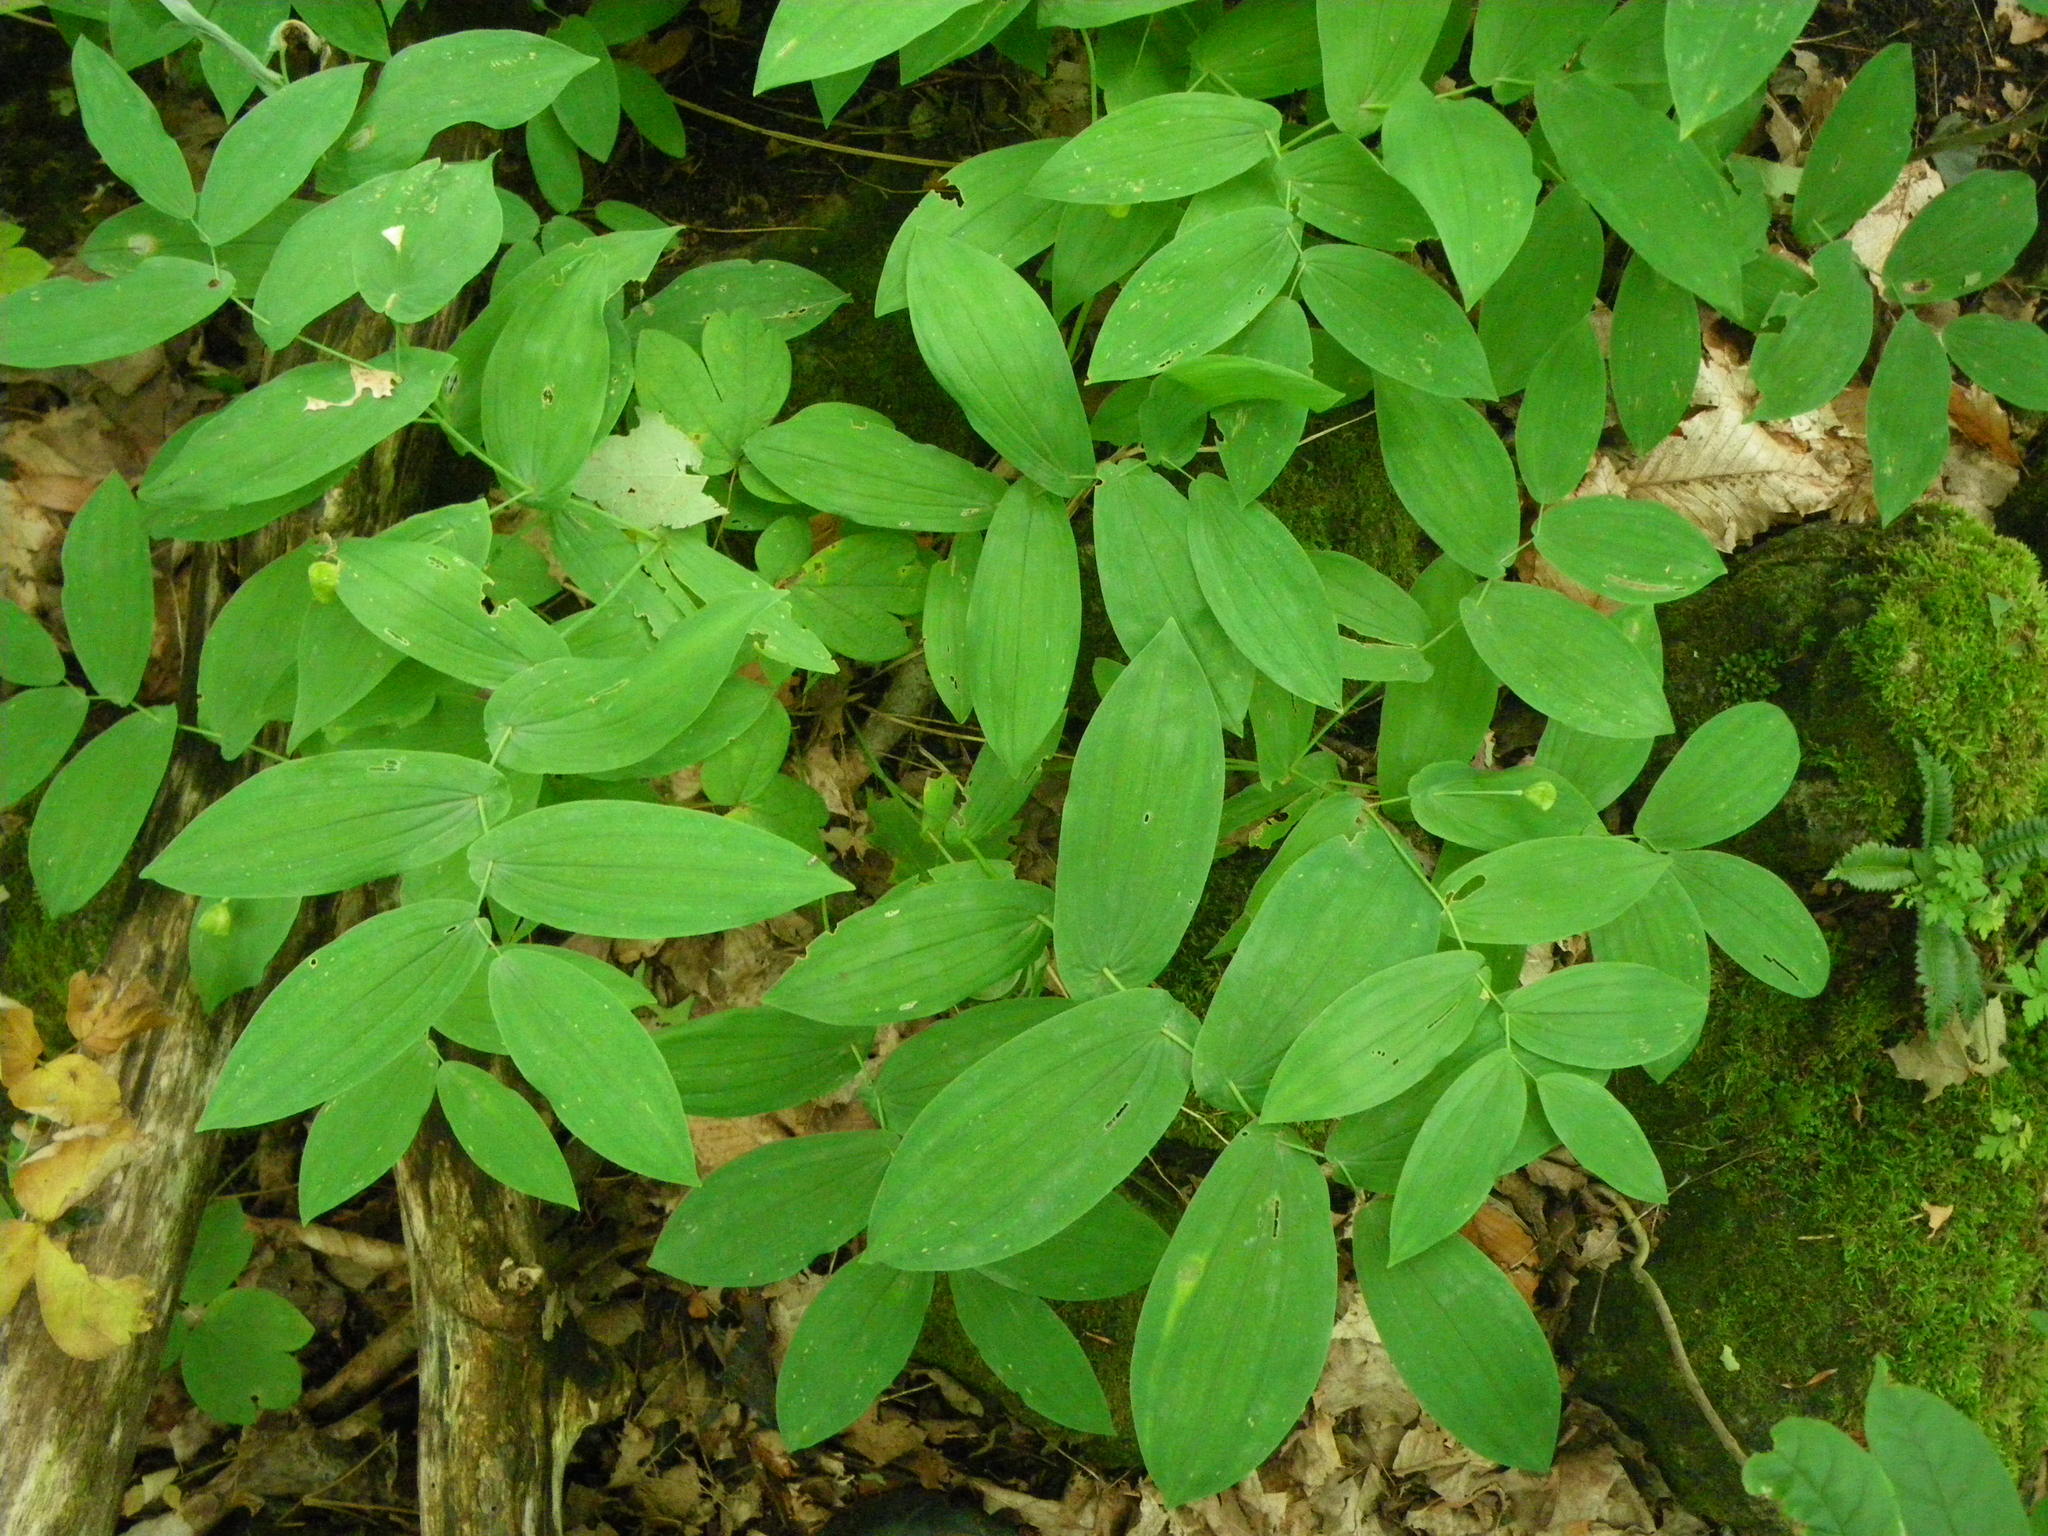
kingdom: Plantae
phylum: Tracheophyta
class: Liliopsida
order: Liliales
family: Colchicaceae
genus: Uvularia
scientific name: Uvularia grandiflora
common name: Bellwort
